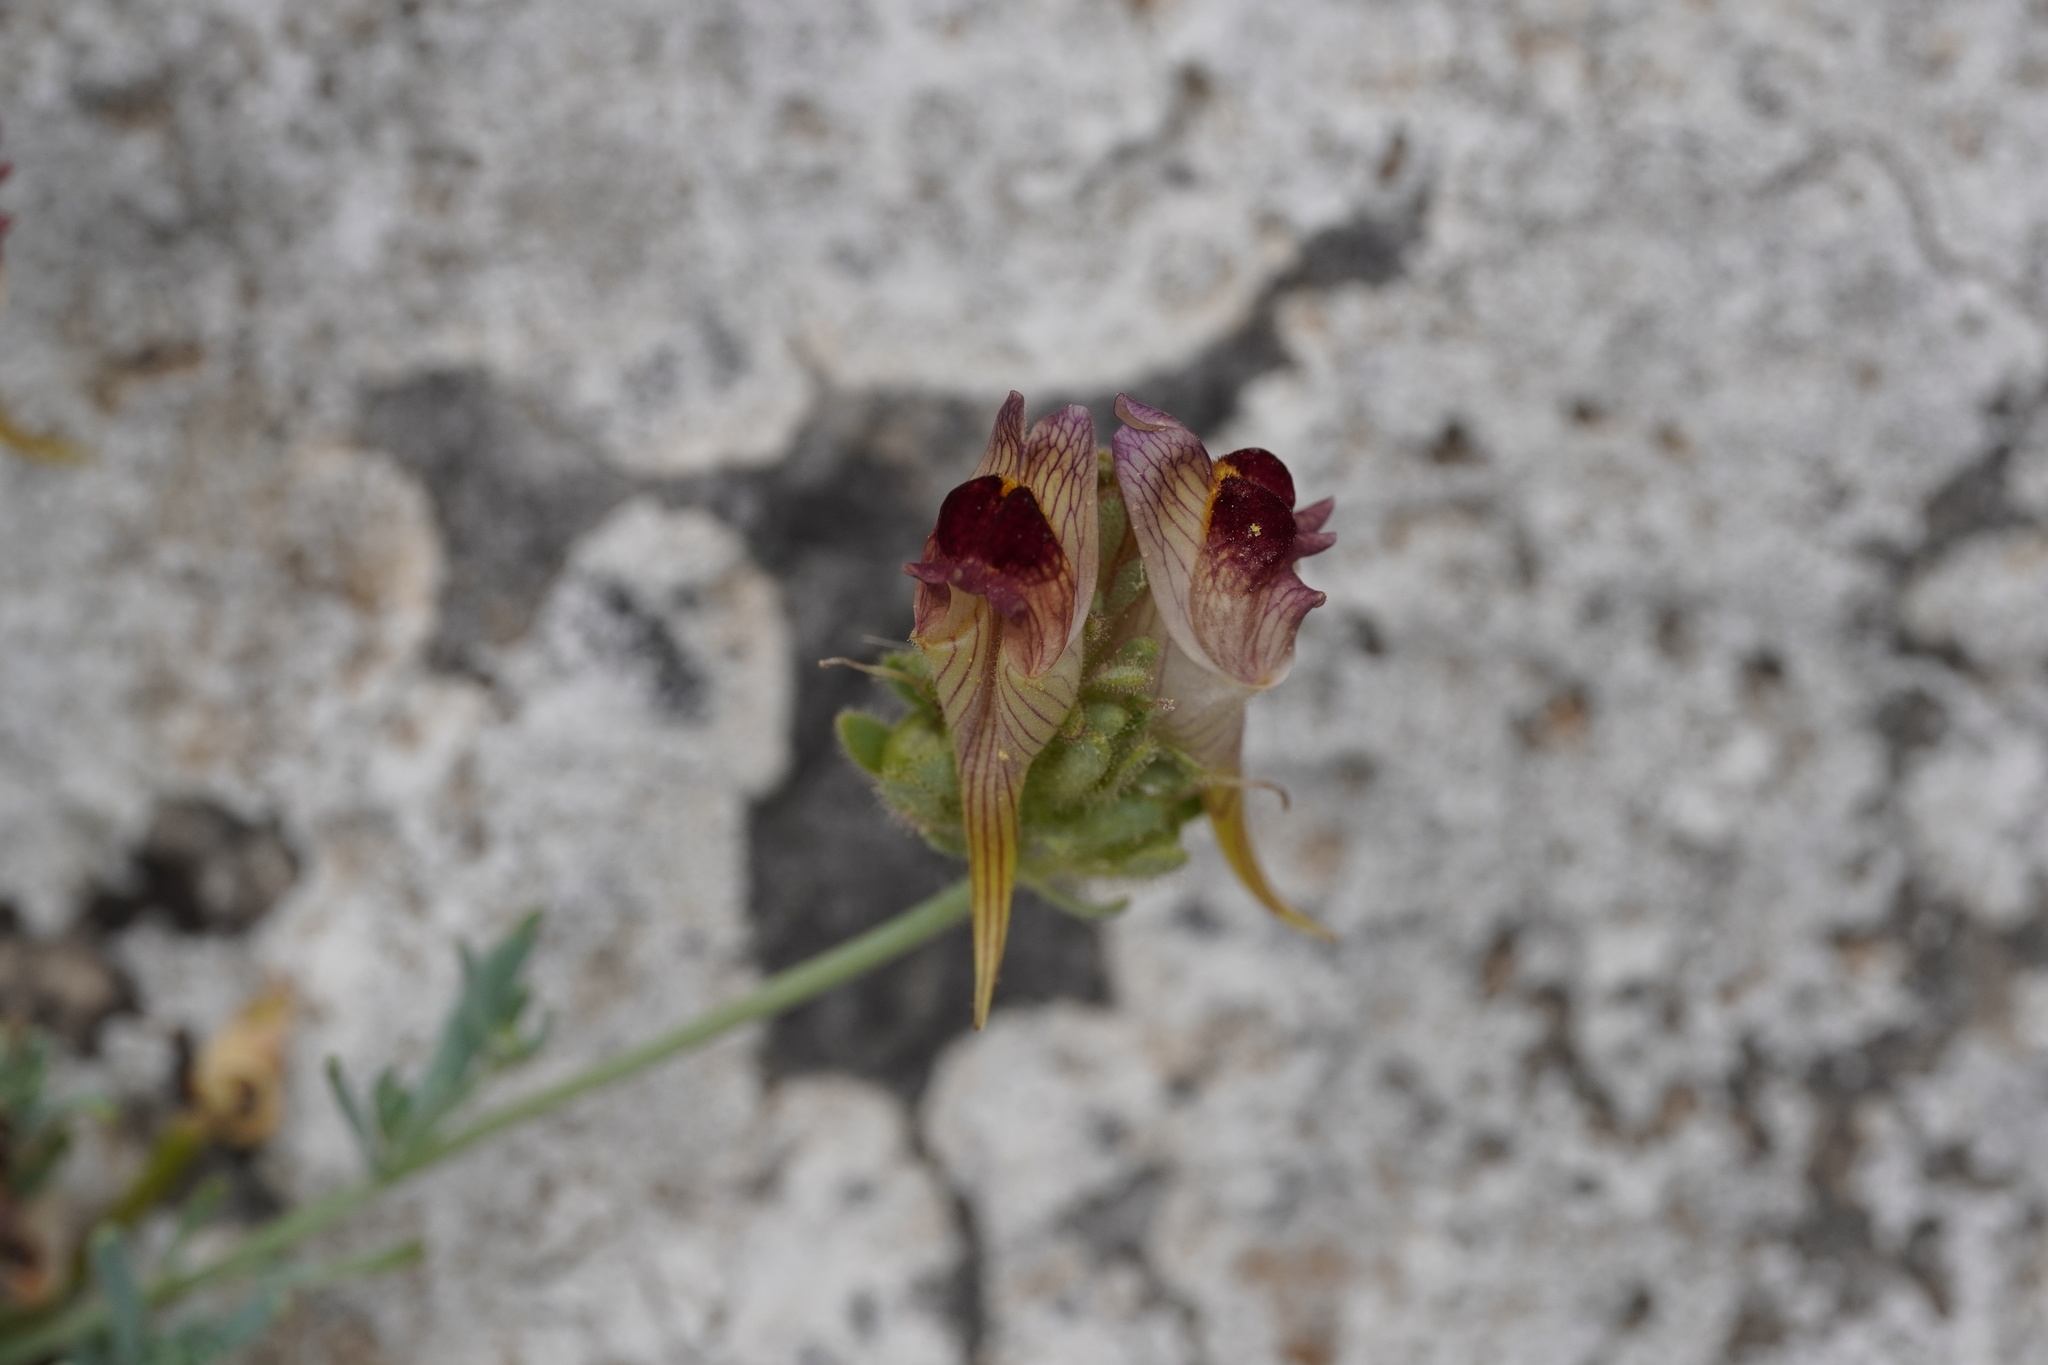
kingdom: Plantae
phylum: Tracheophyta
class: Magnoliopsida
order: Lamiales
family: Plantaginaceae
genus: Linaria
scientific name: Linaria tristis
